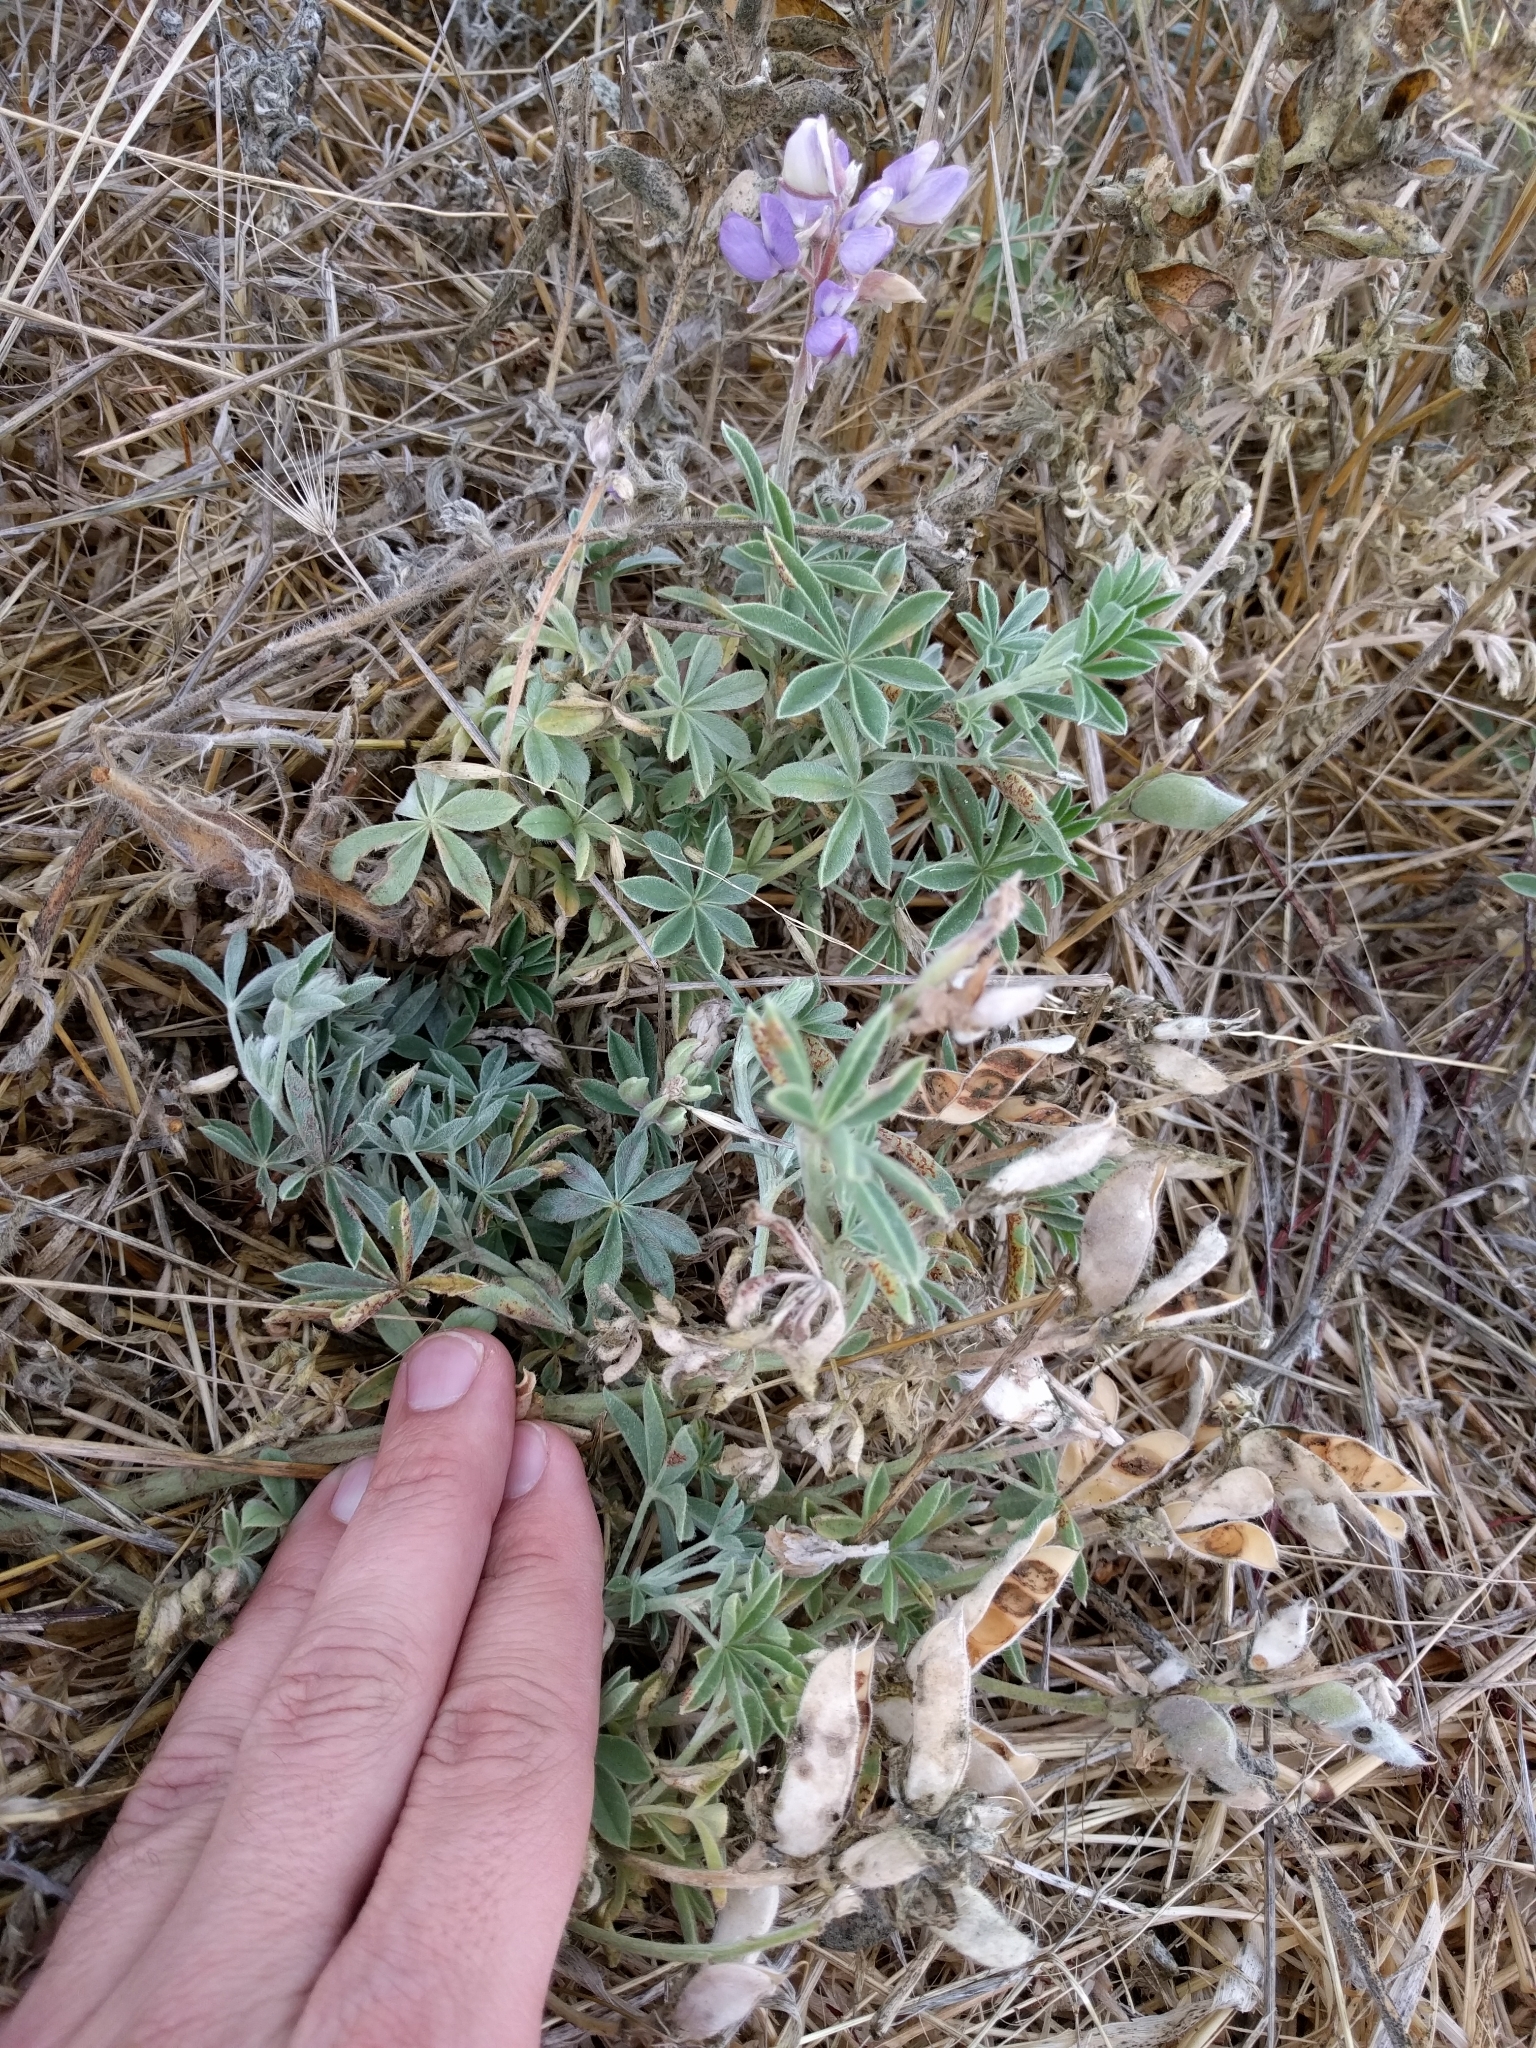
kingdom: Plantae
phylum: Tracheophyta
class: Magnoliopsida
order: Fabales
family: Fabaceae
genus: Lupinus
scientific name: Lupinus formosus
